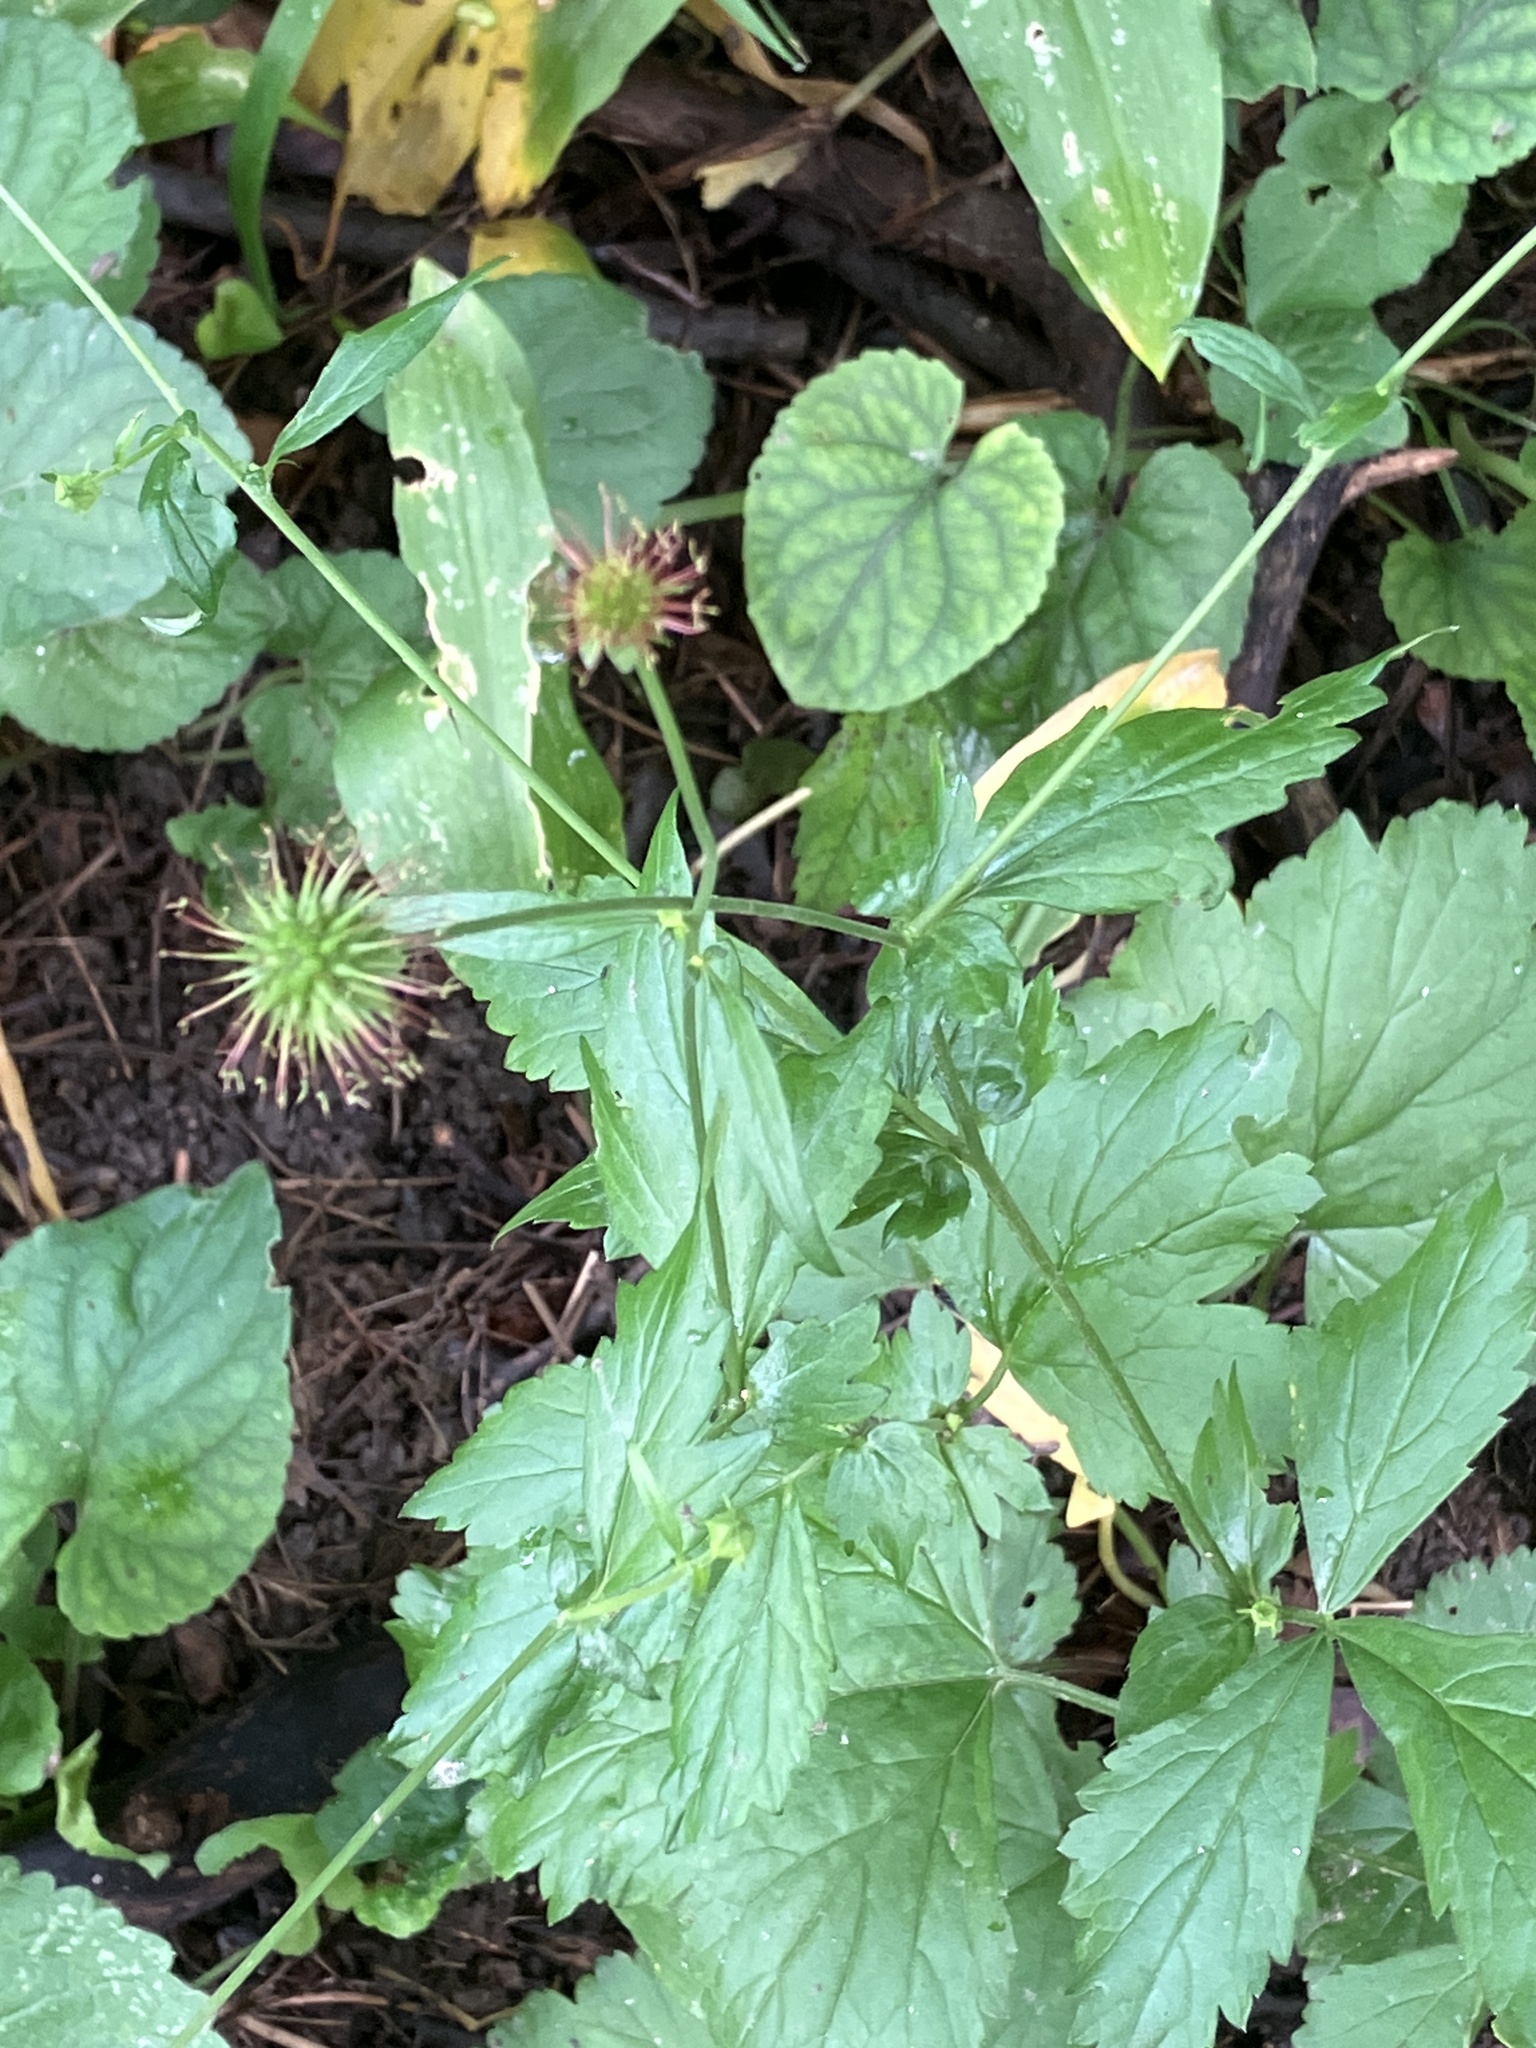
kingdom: Plantae
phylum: Tracheophyta
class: Magnoliopsida
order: Rosales
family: Rosaceae
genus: Geum
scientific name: Geum urbanum
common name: Wood avens
